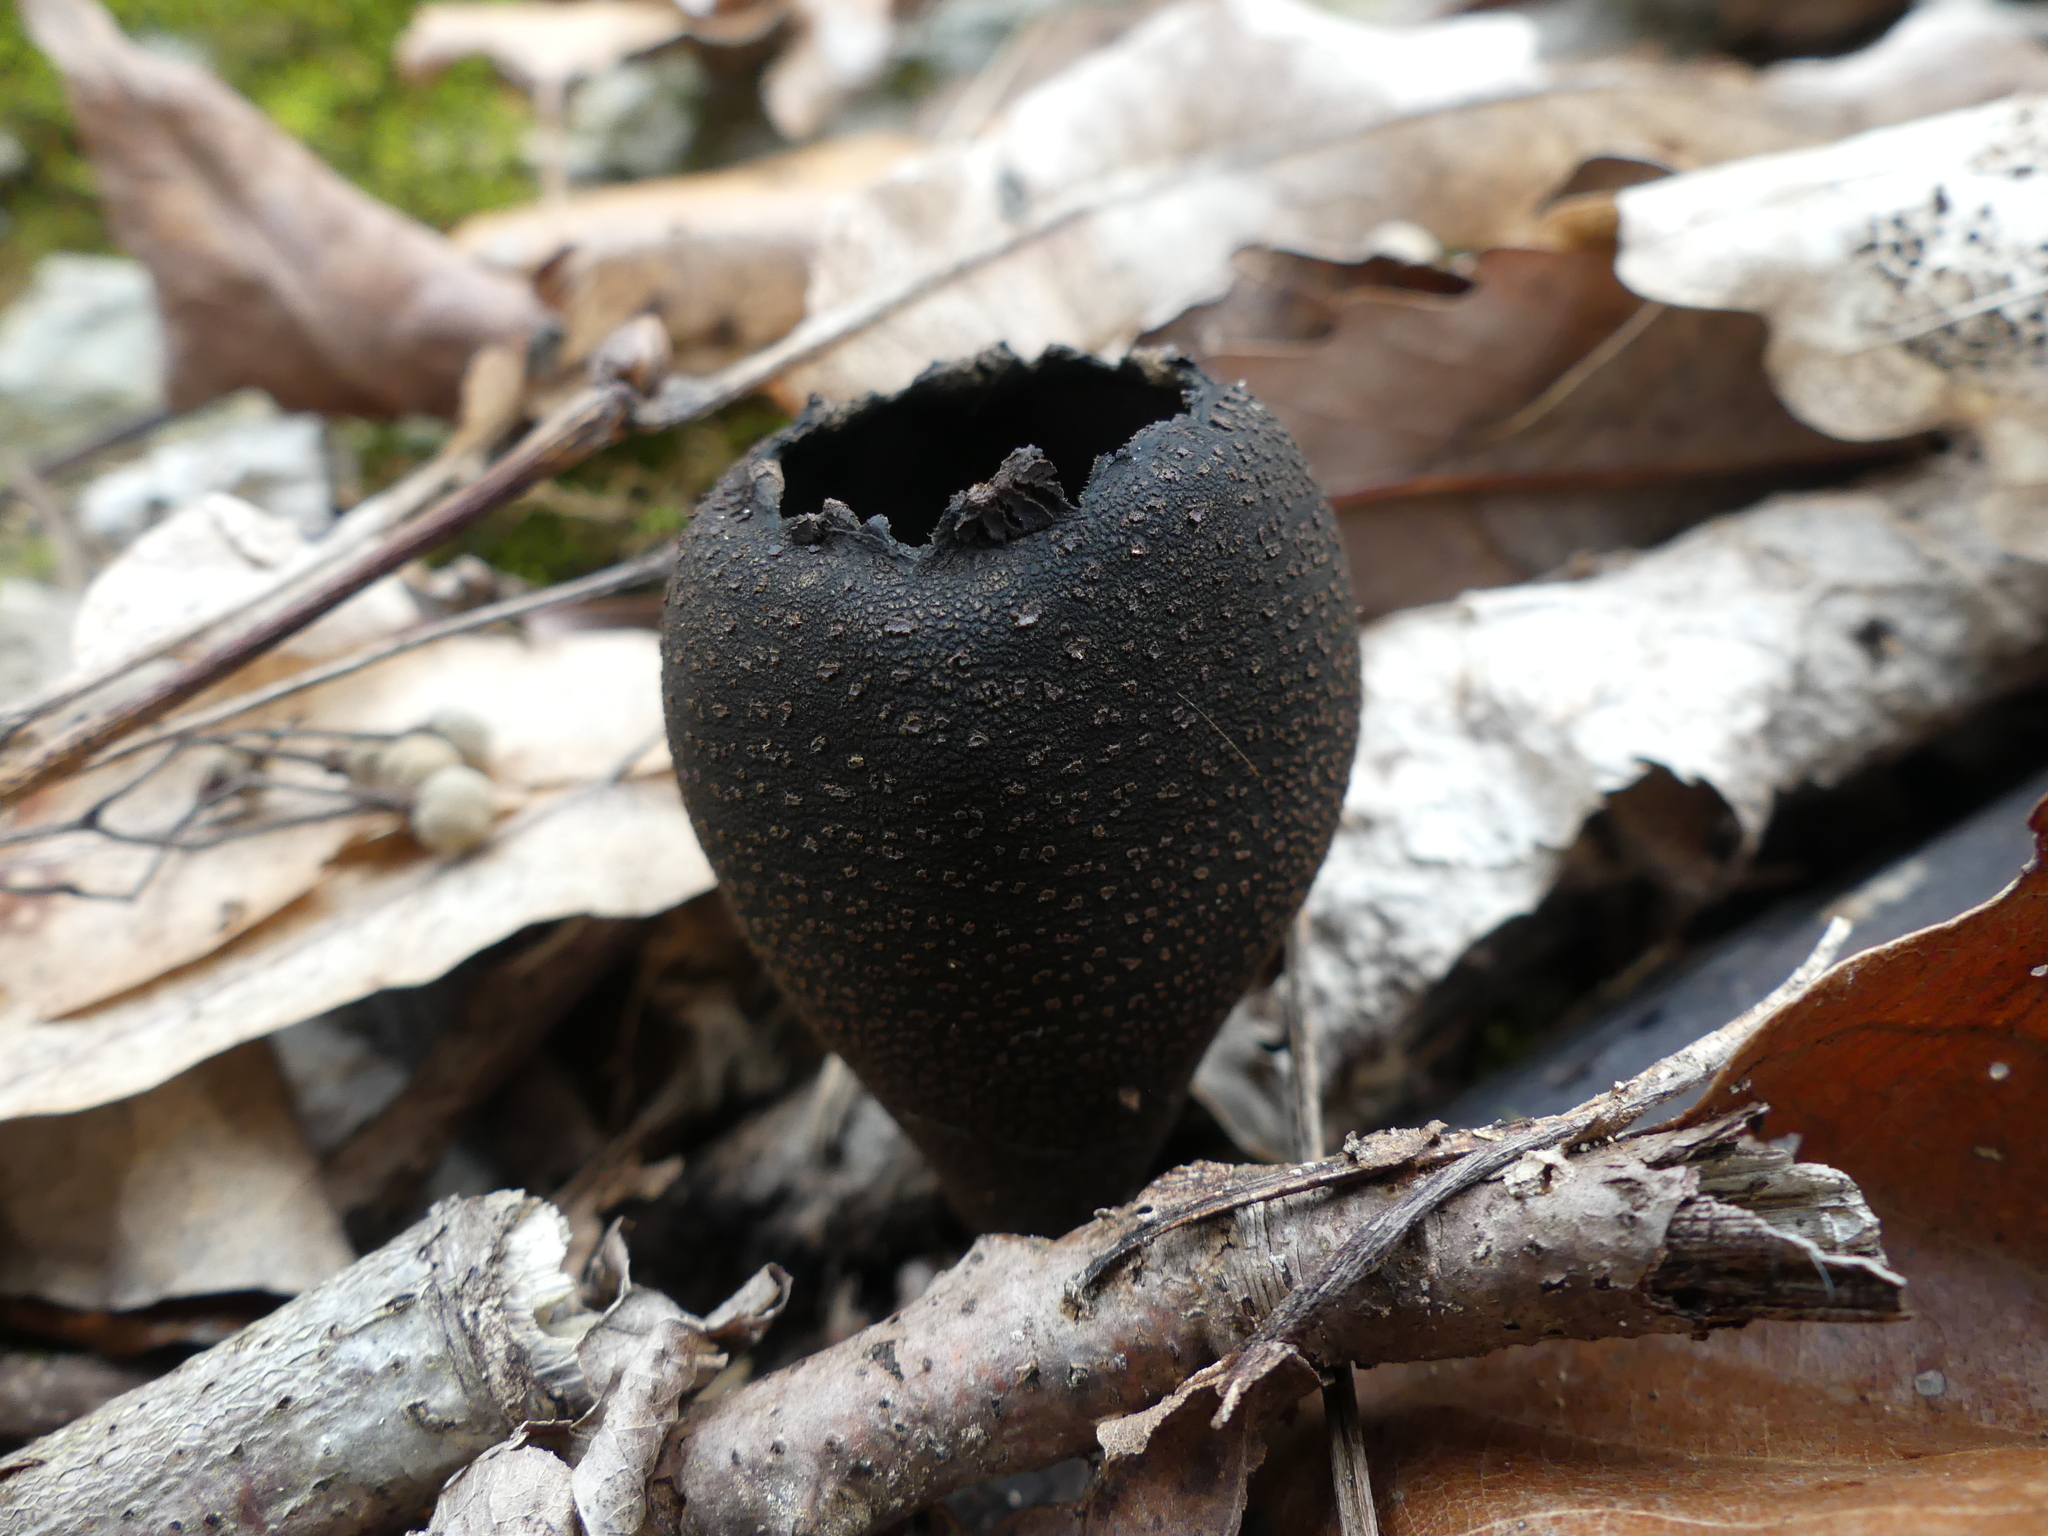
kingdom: Fungi
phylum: Ascomycota
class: Pezizomycetes
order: Pezizales
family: Sarcosomataceae
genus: Urnula
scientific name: Urnula craterium
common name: Devil's urn
